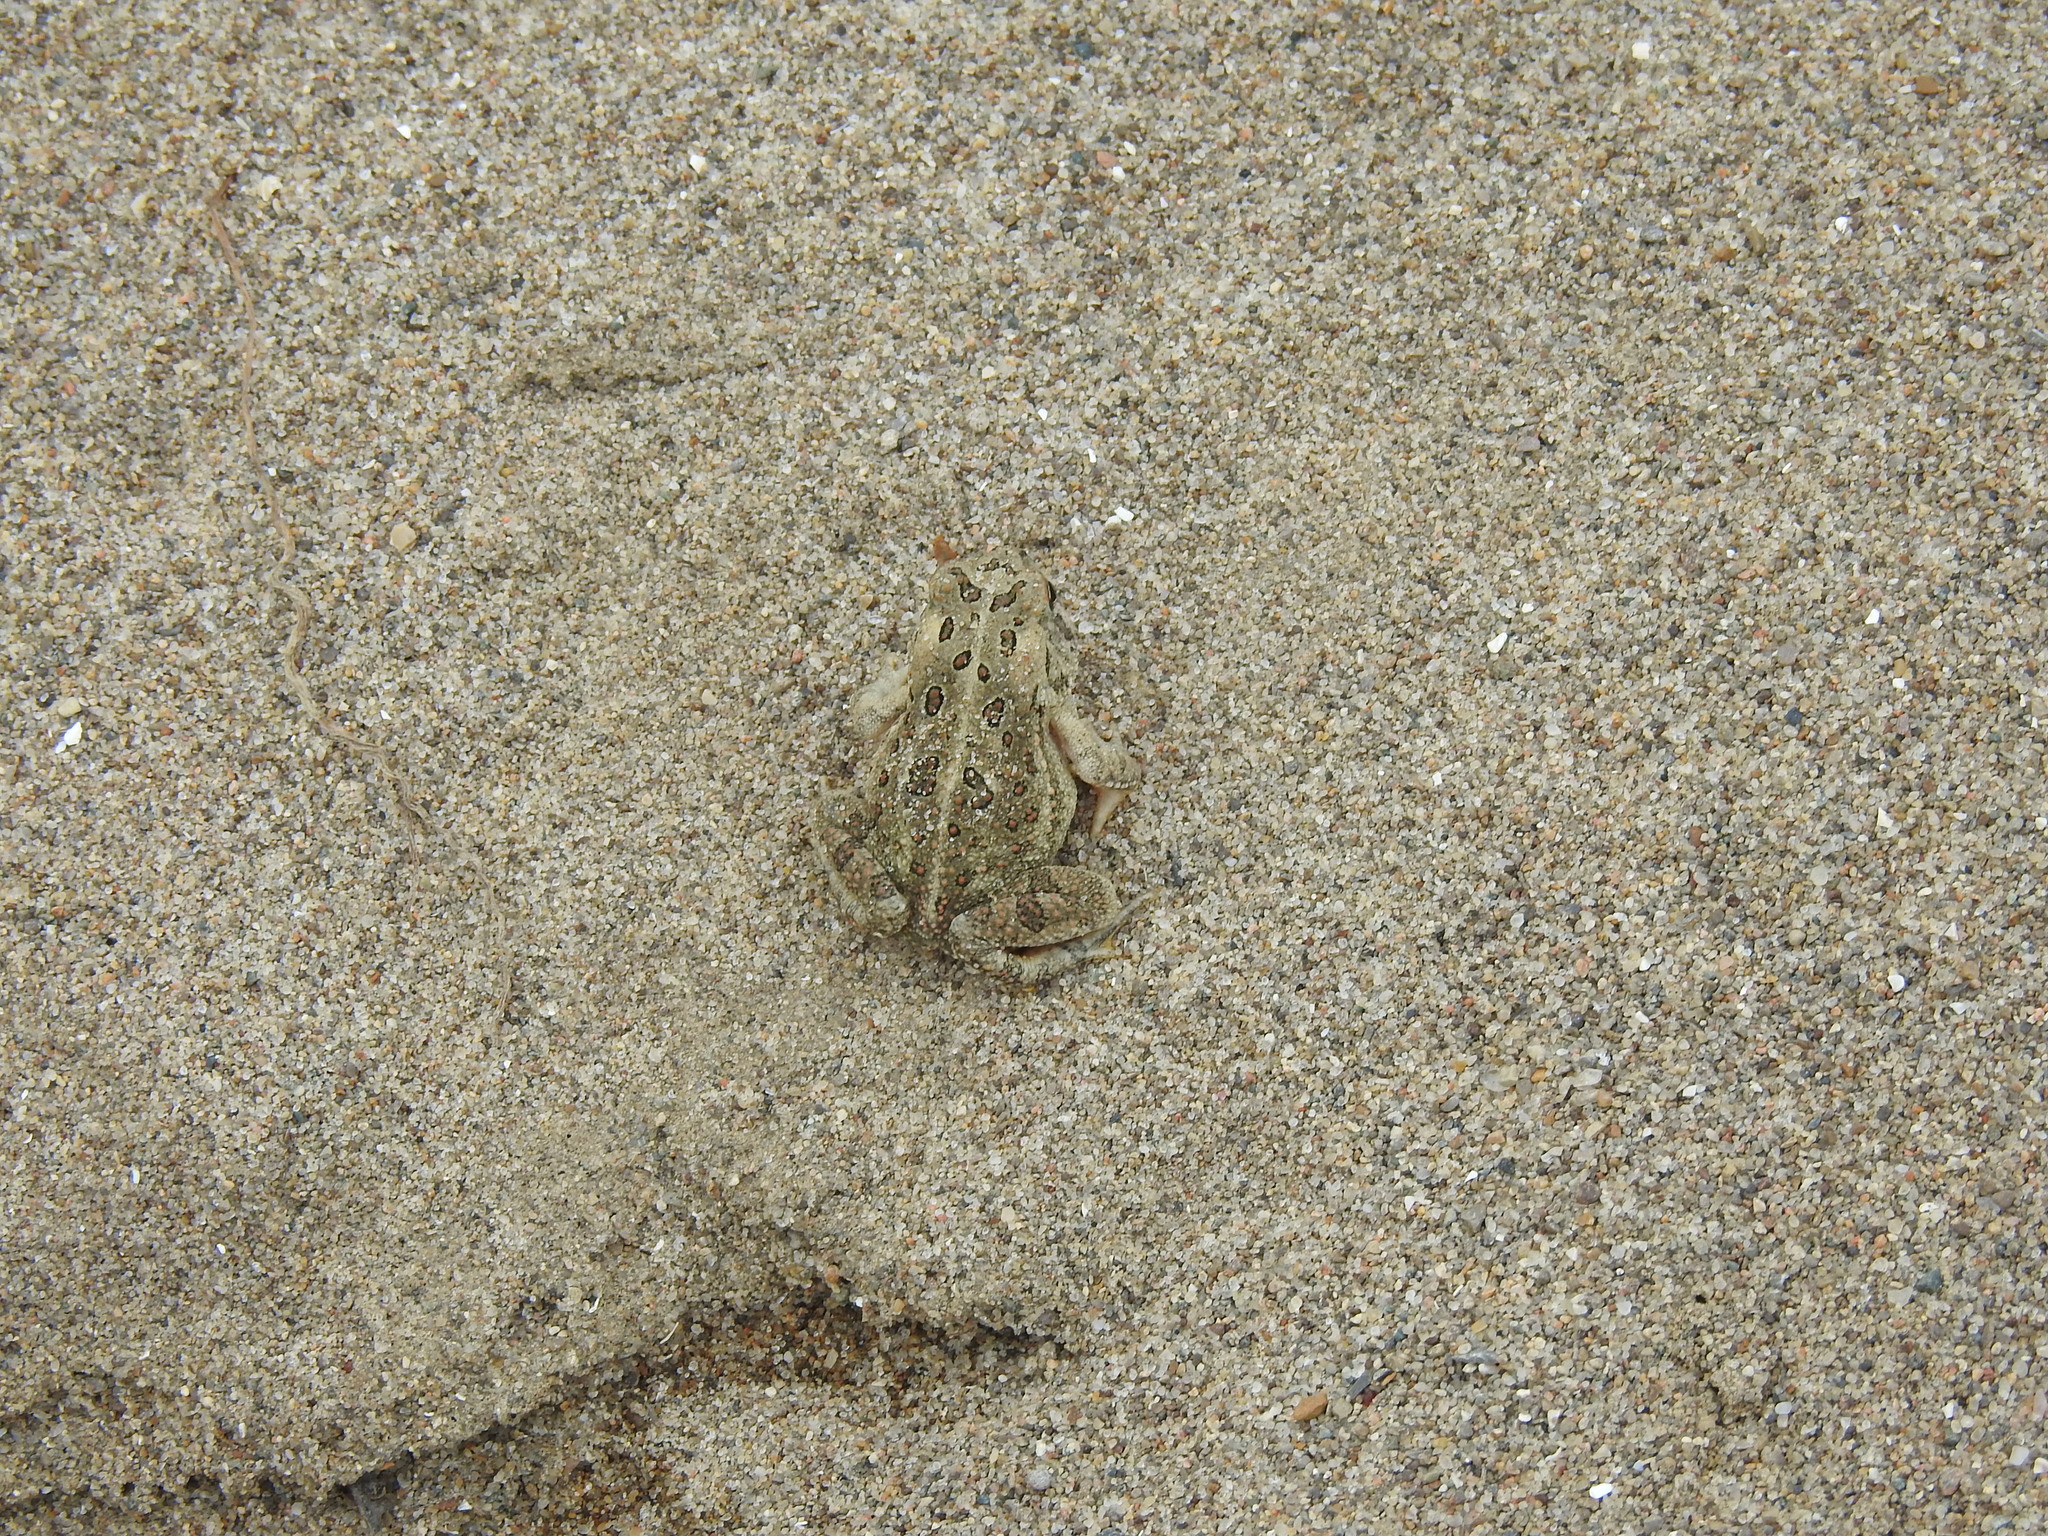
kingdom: Animalia
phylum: Chordata
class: Amphibia
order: Anura
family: Bufonidae
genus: Anaxyrus
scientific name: Anaxyrus fowleri
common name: Fowler's toad
